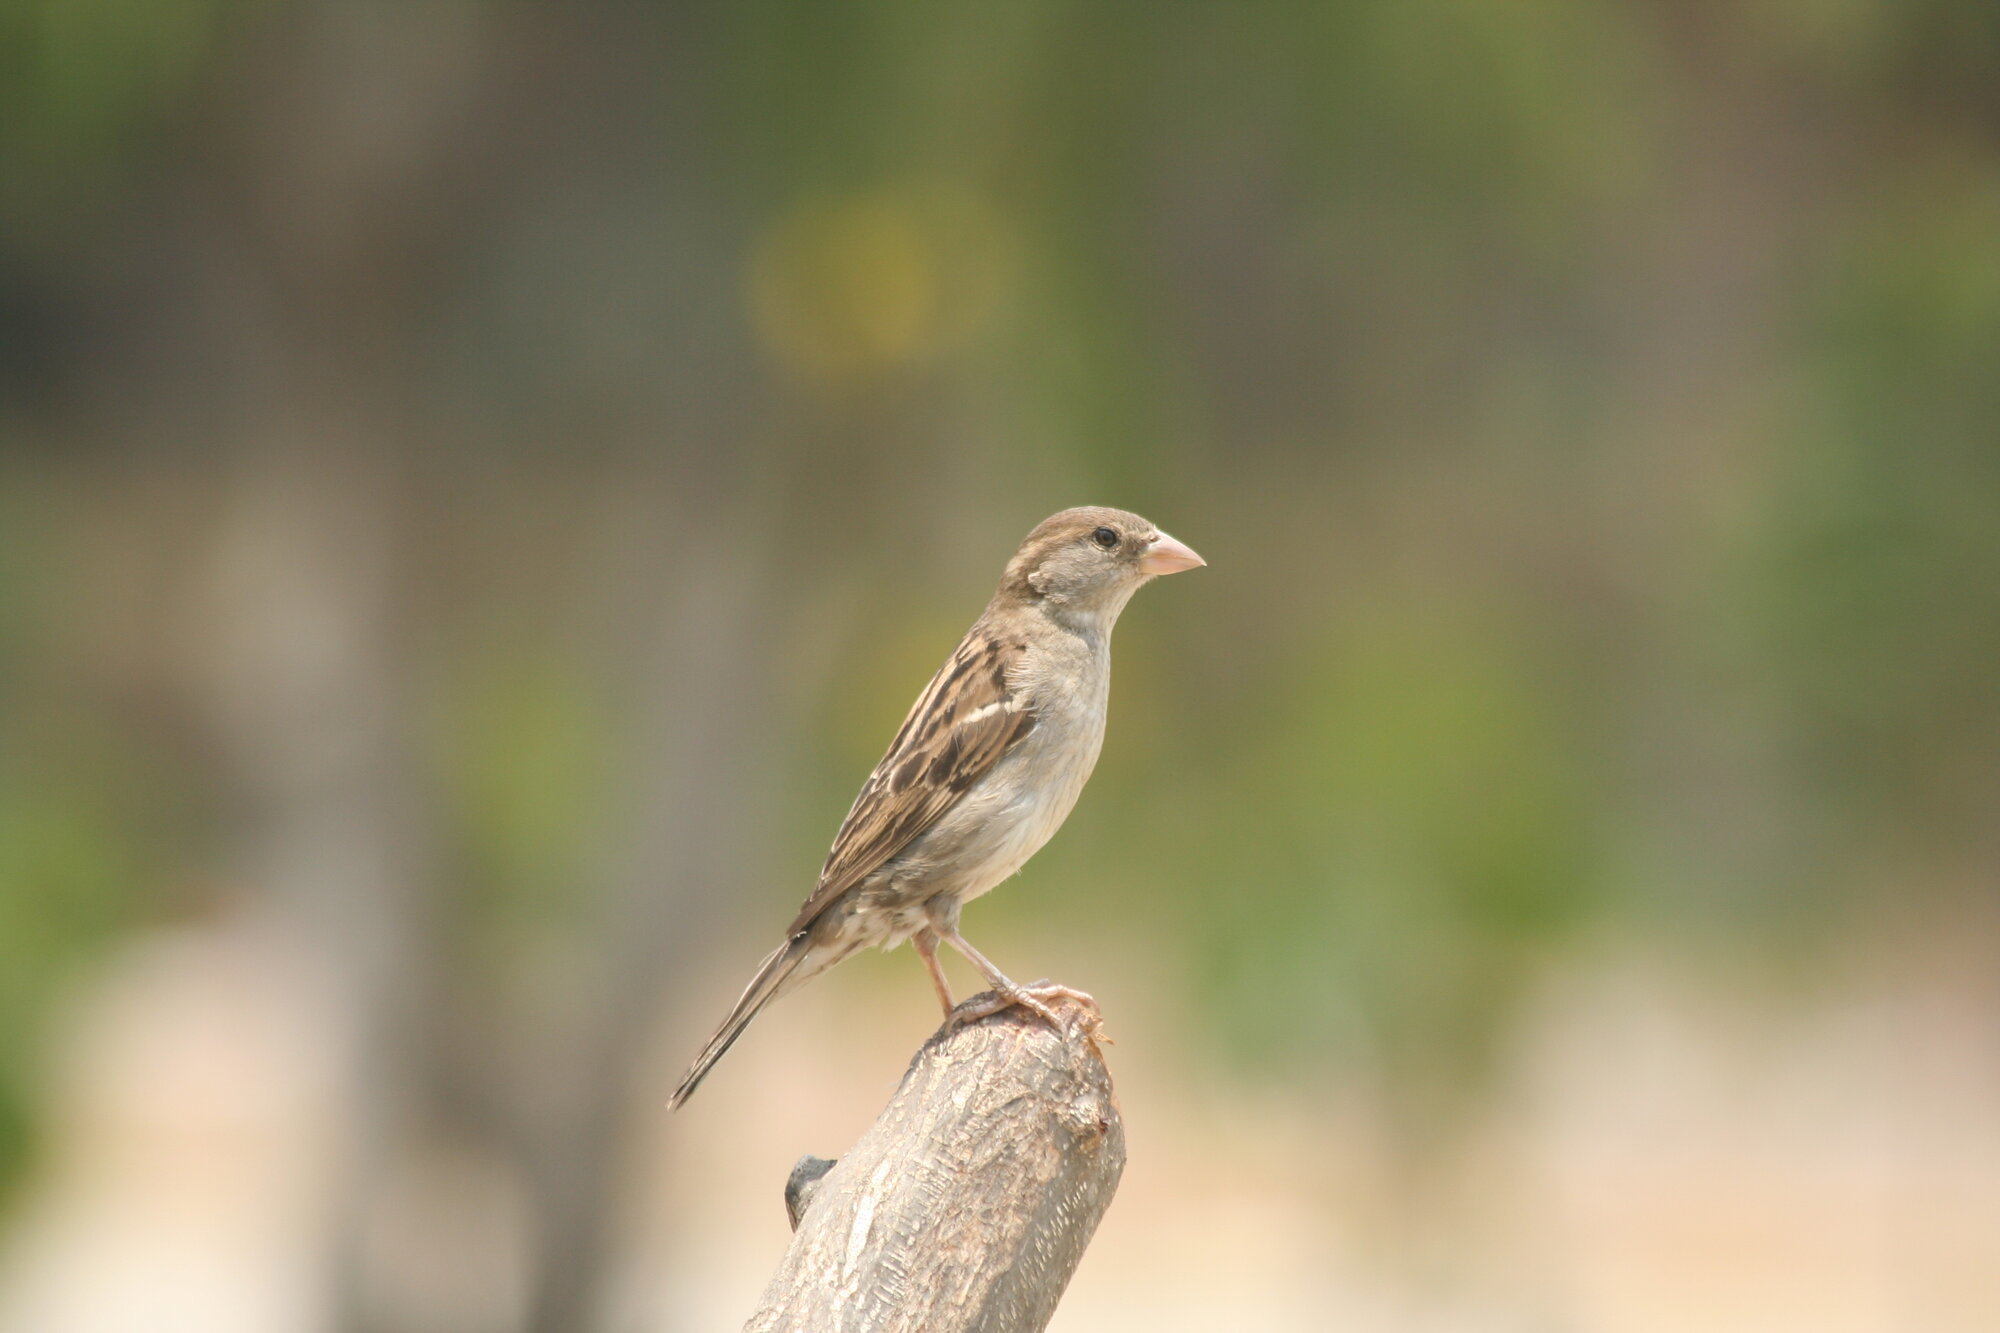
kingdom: Animalia
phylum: Chordata
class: Aves
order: Passeriformes
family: Passeridae
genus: Passer
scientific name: Passer domesticus
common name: House sparrow
